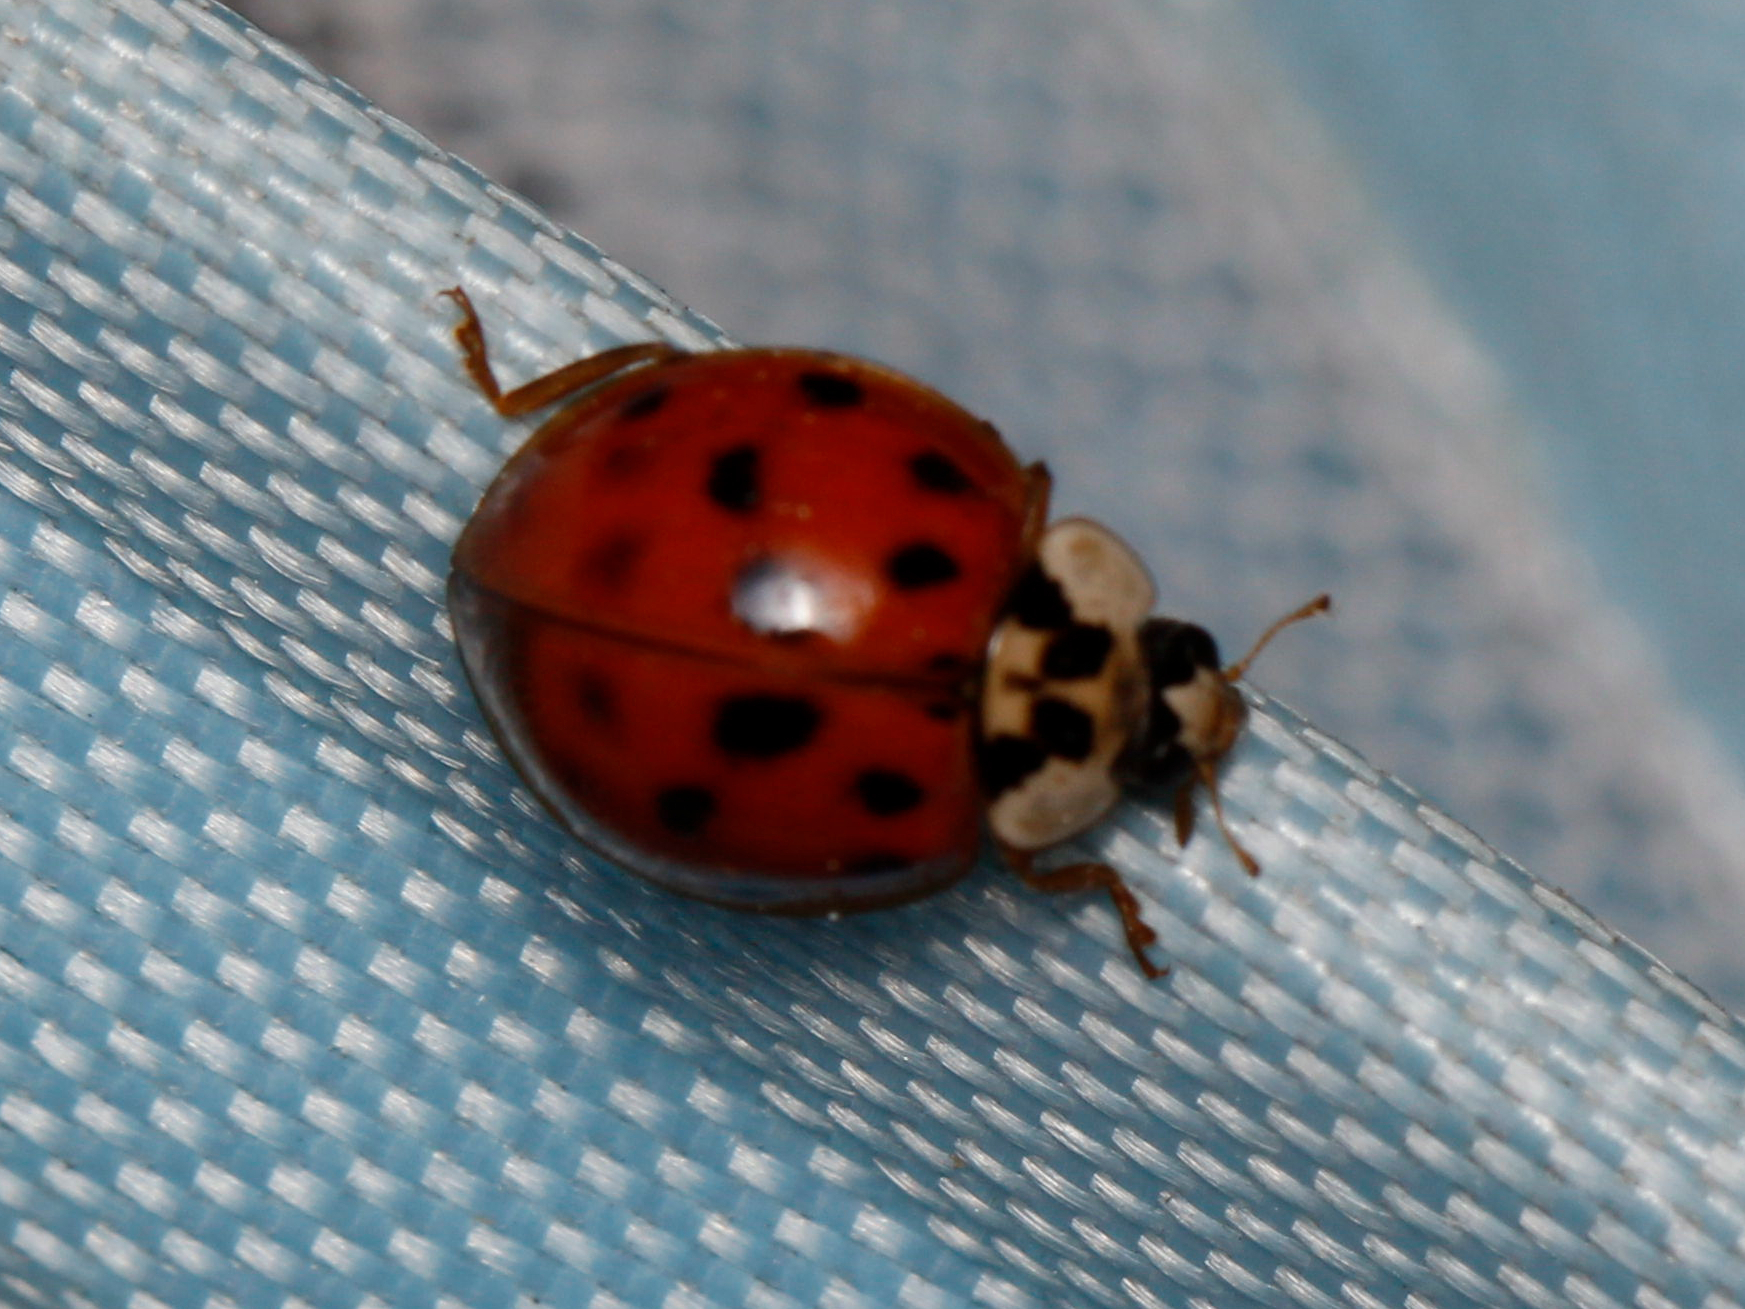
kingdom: Animalia
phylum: Arthropoda
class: Insecta
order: Coleoptera
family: Coccinellidae
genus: Harmonia
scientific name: Harmonia axyridis
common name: Harlequin ladybird
